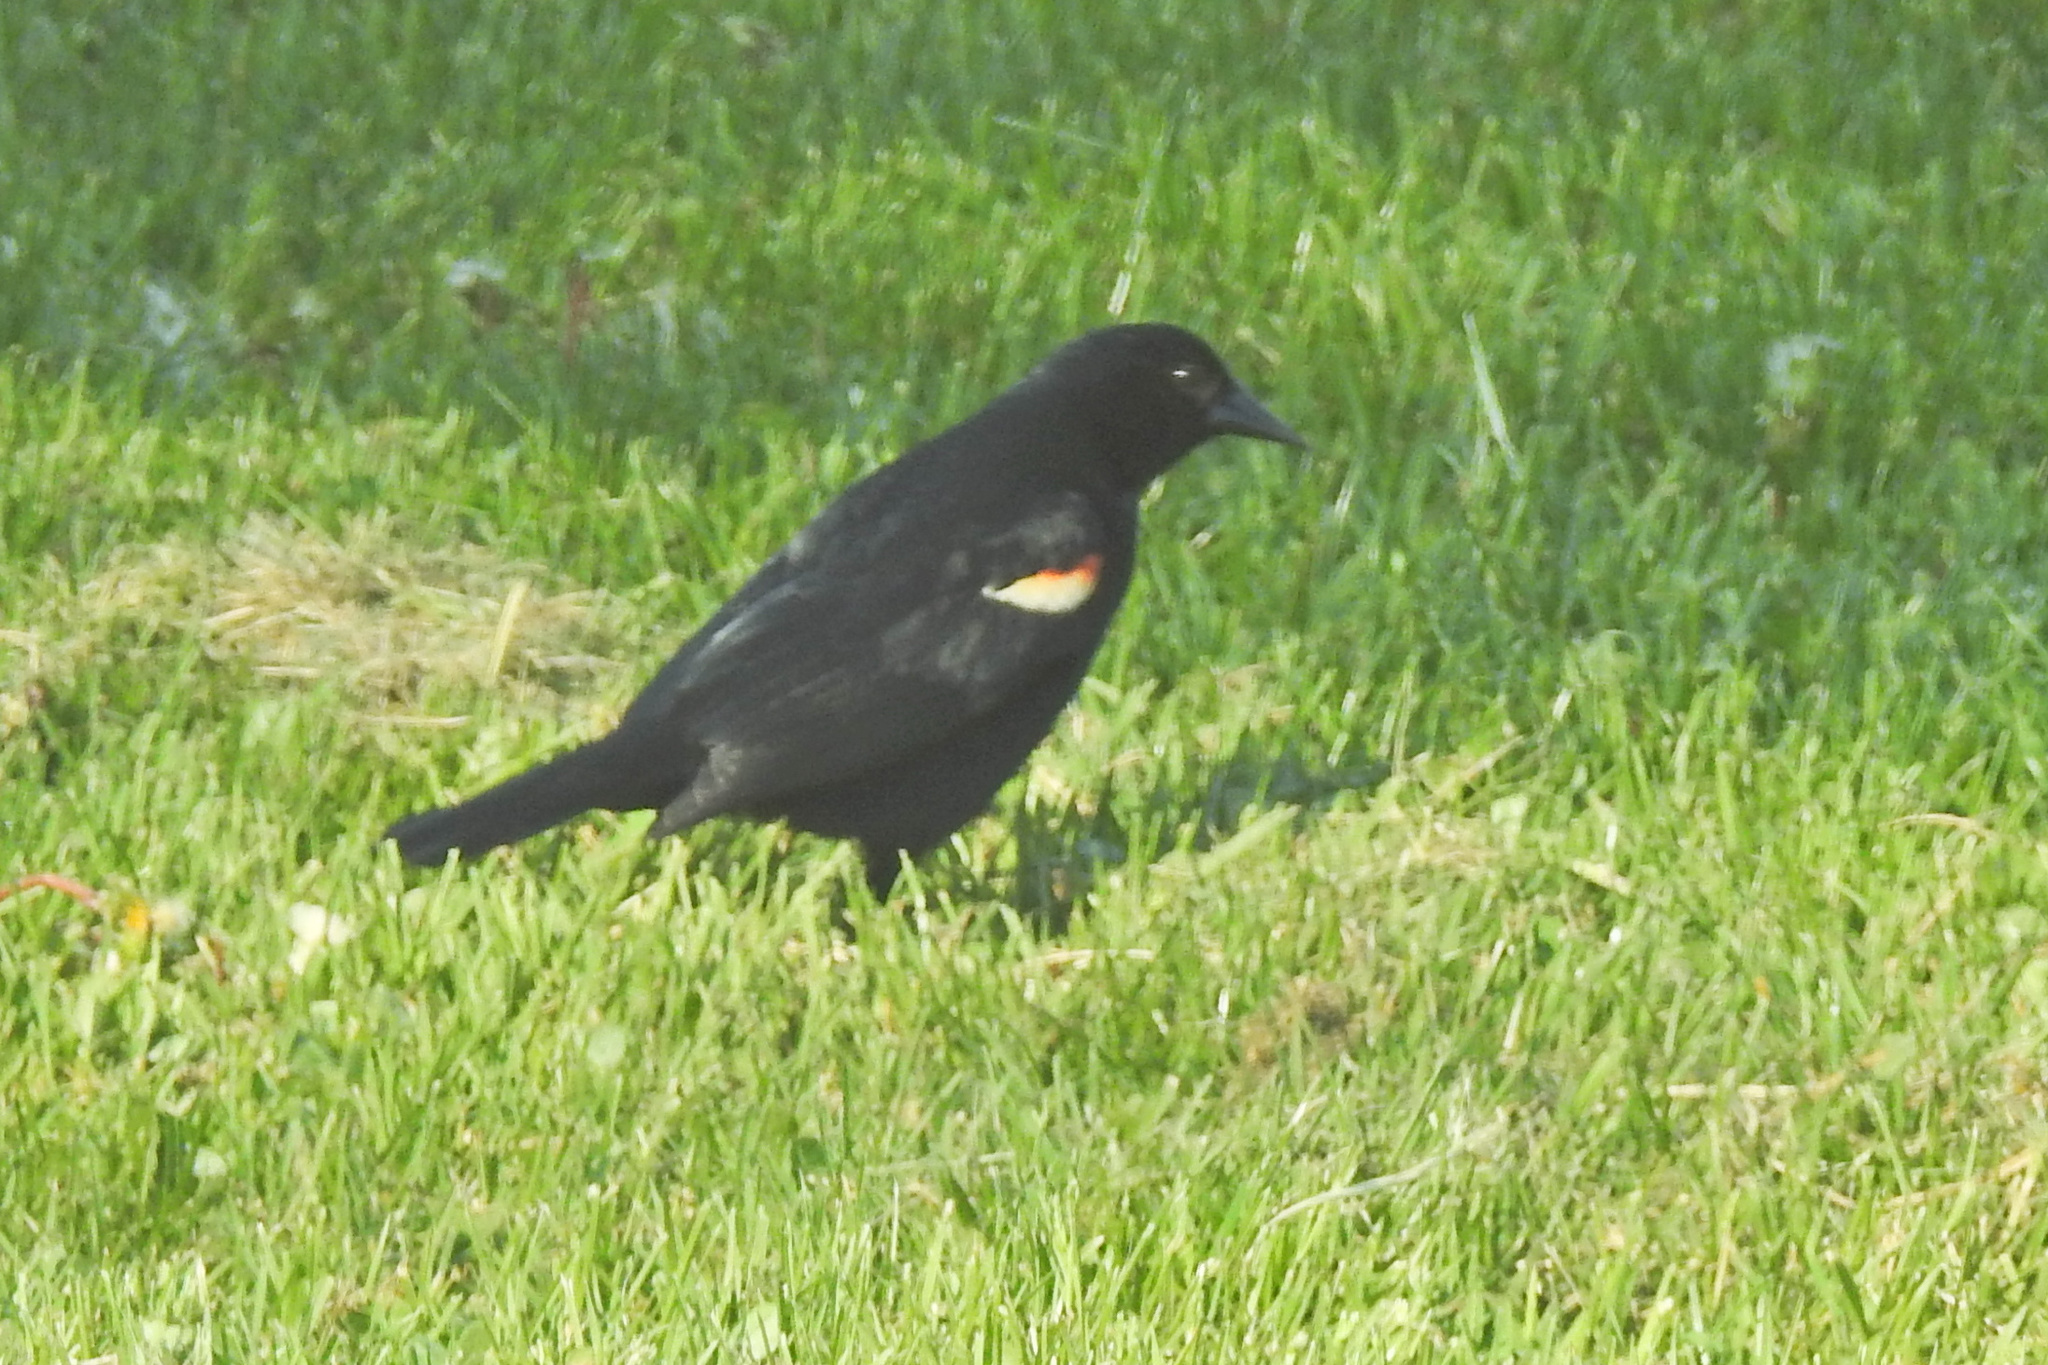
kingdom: Animalia
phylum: Chordata
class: Aves
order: Passeriformes
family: Icteridae
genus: Agelaius
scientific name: Agelaius phoeniceus
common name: Red-winged blackbird
